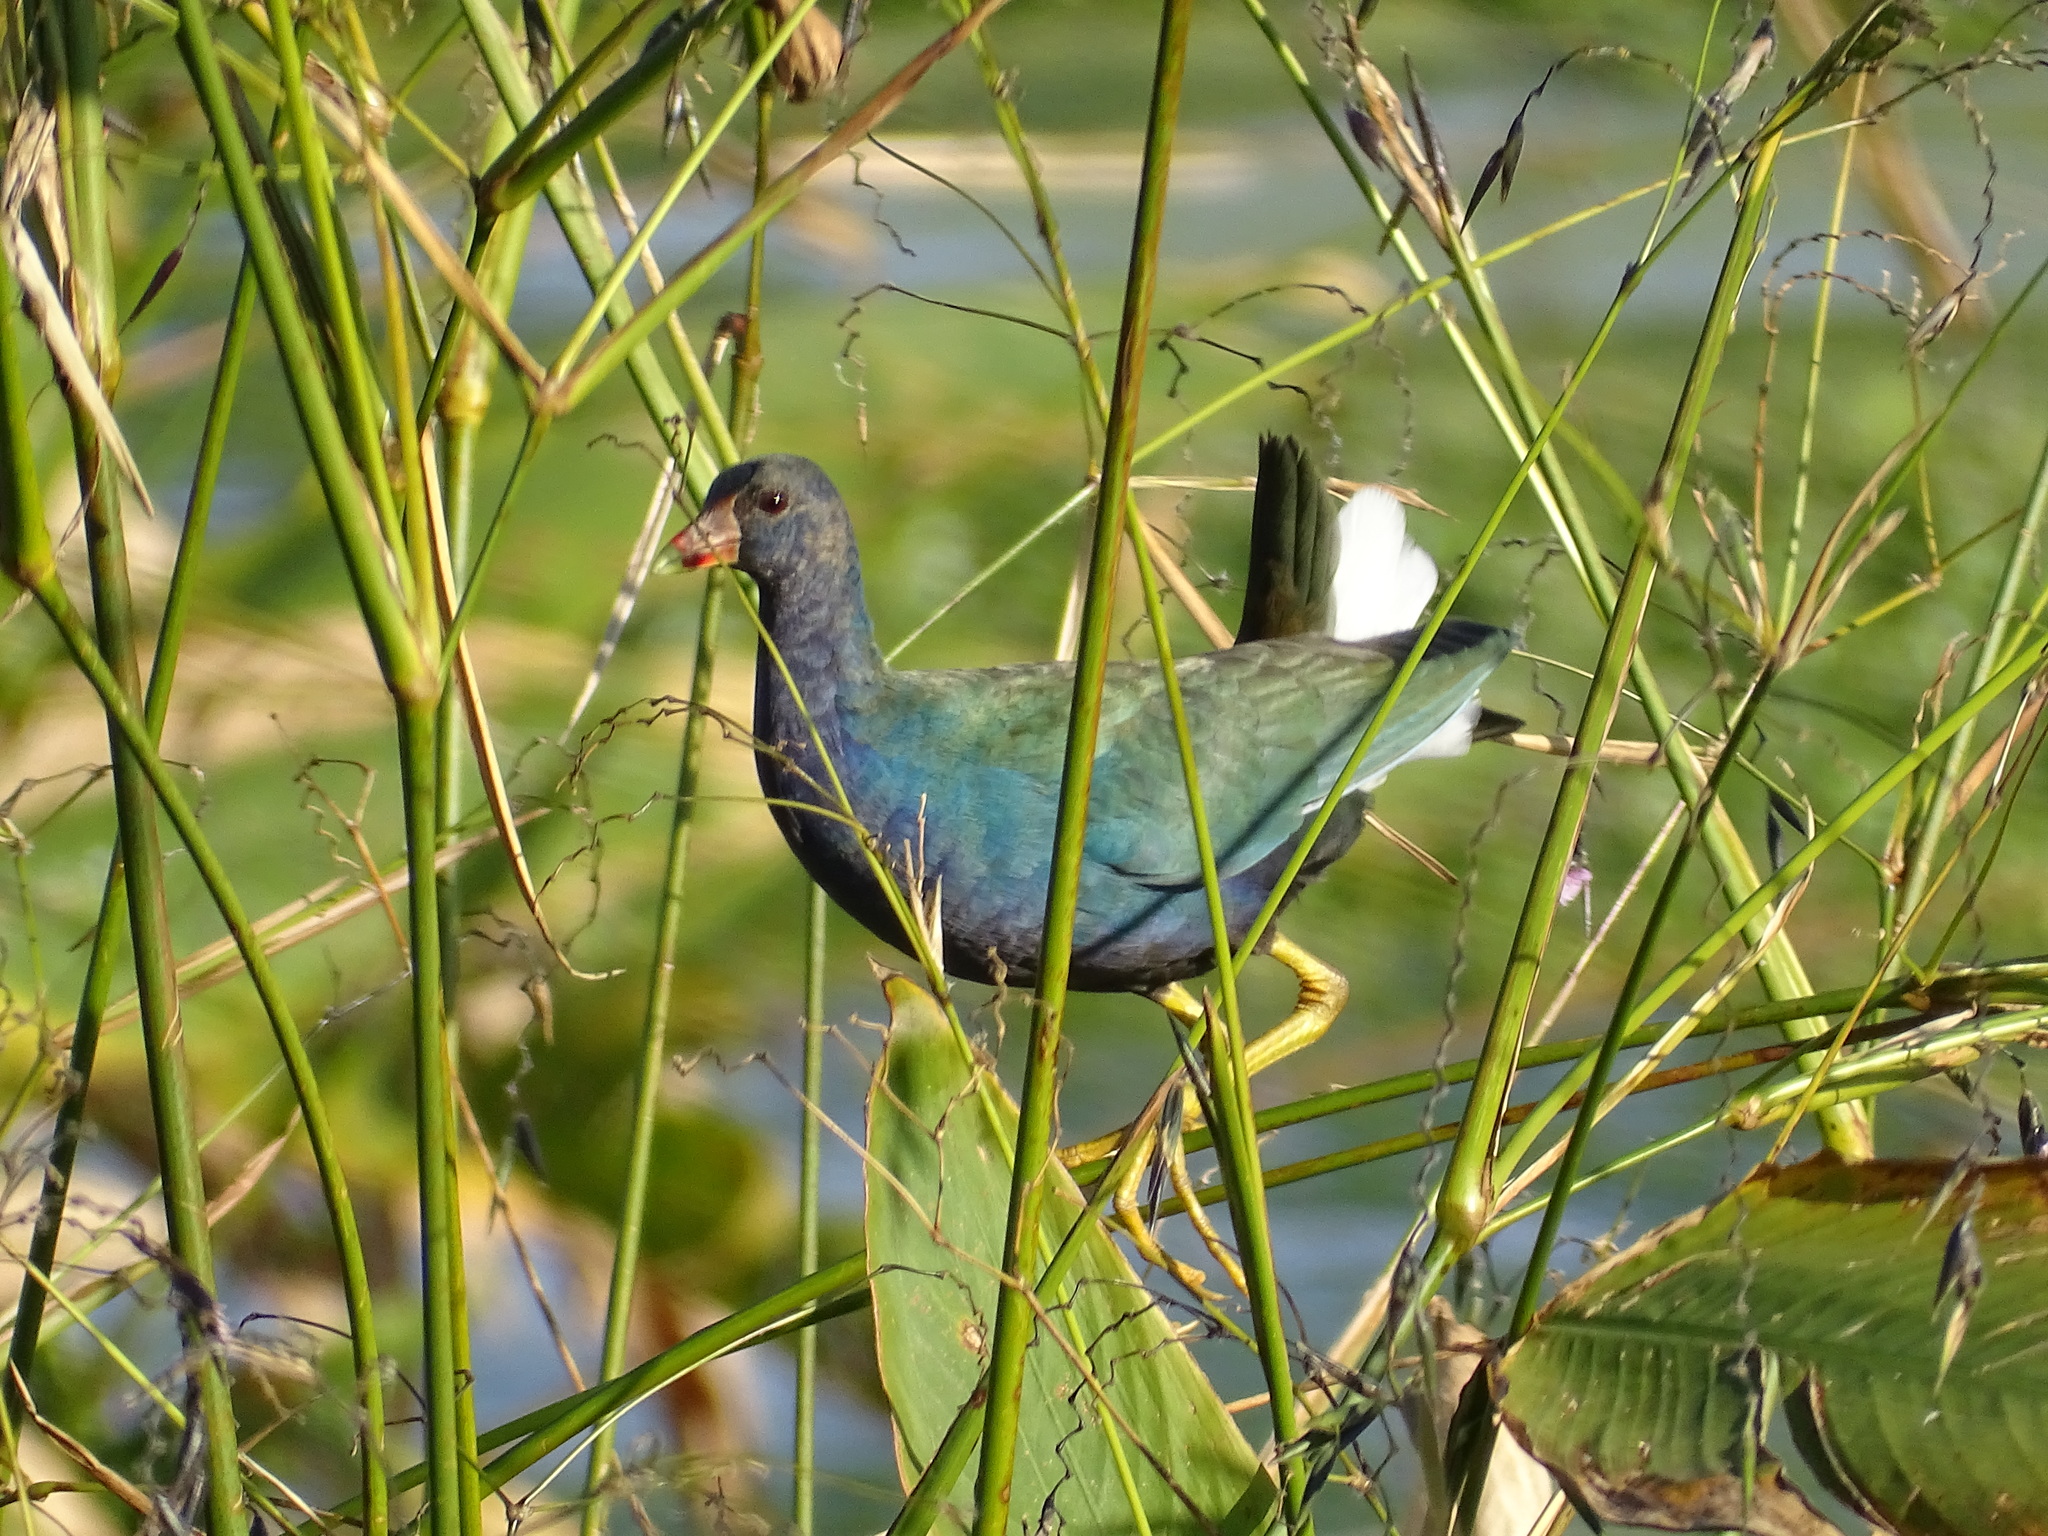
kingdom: Animalia
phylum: Chordata
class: Aves
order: Gruiformes
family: Rallidae
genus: Porphyrio
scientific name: Porphyrio martinica
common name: Purple gallinule
